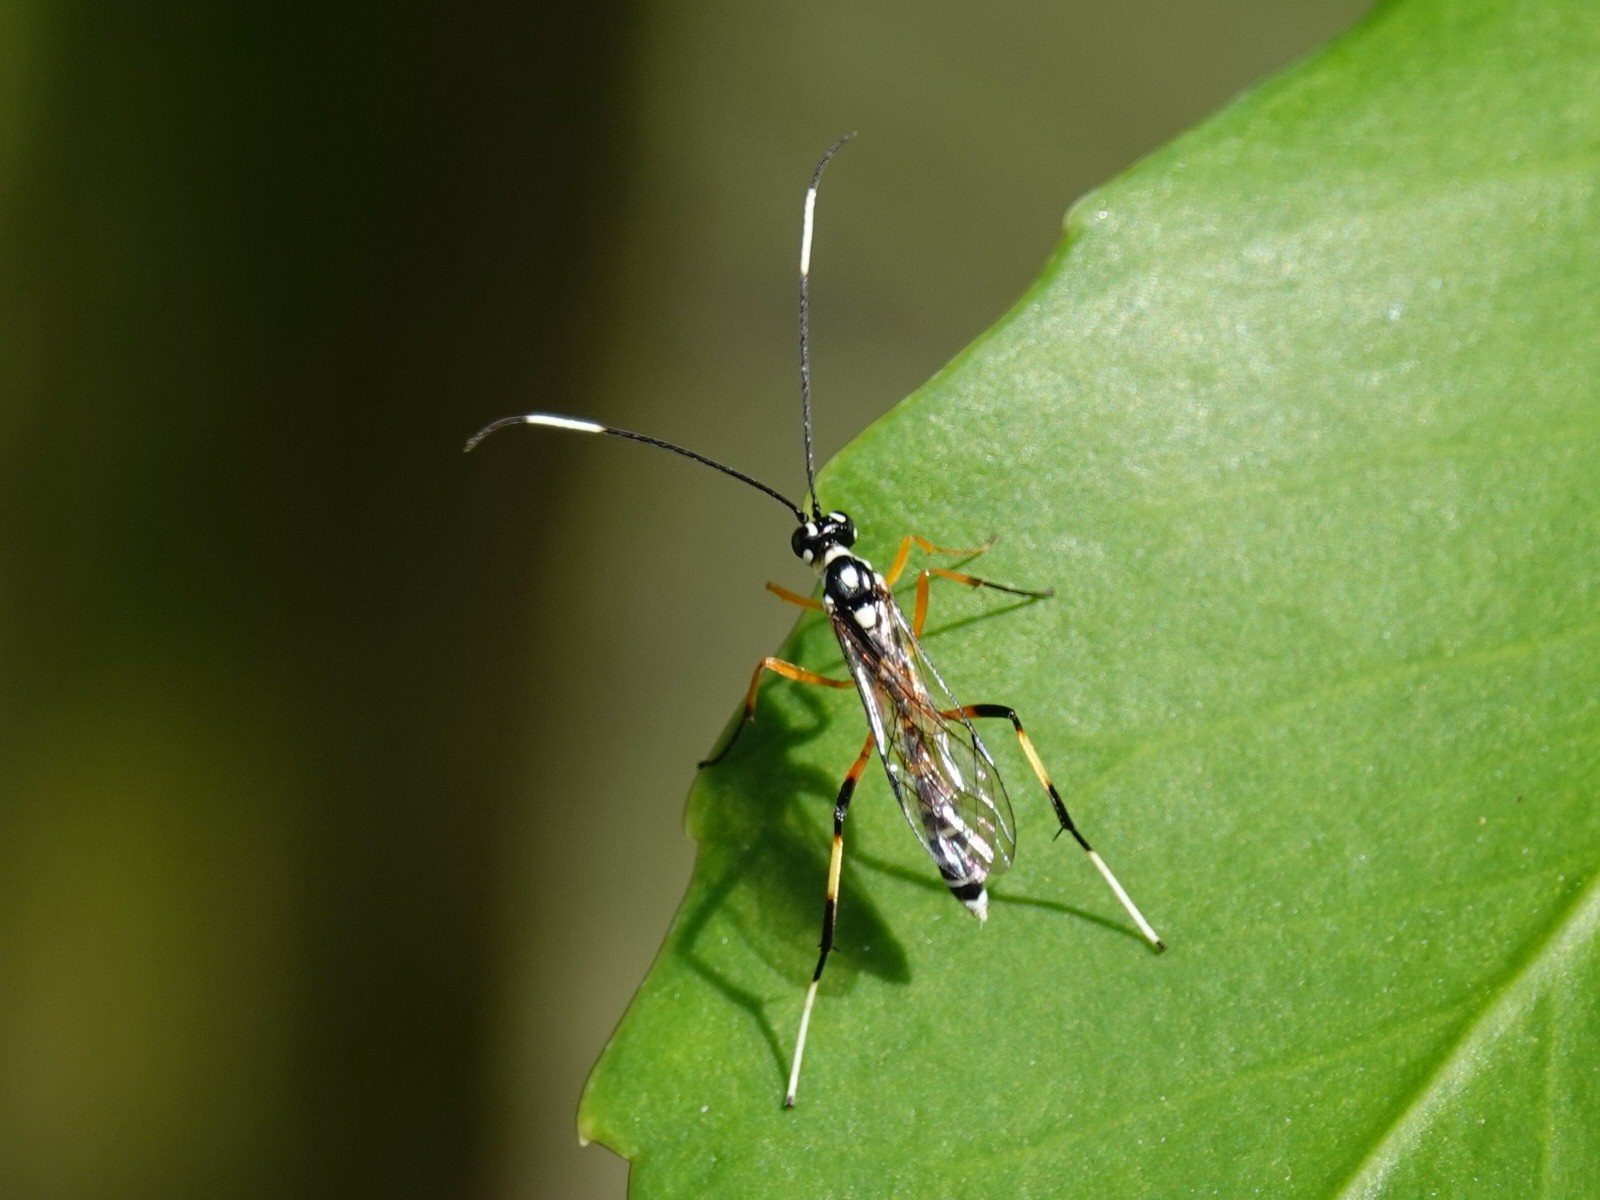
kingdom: Animalia
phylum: Arthropoda
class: Insecta
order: Hymenoptera
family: Ichneumonidae
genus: Xanthocryptus
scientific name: Xanthocryptus novozealandicus
